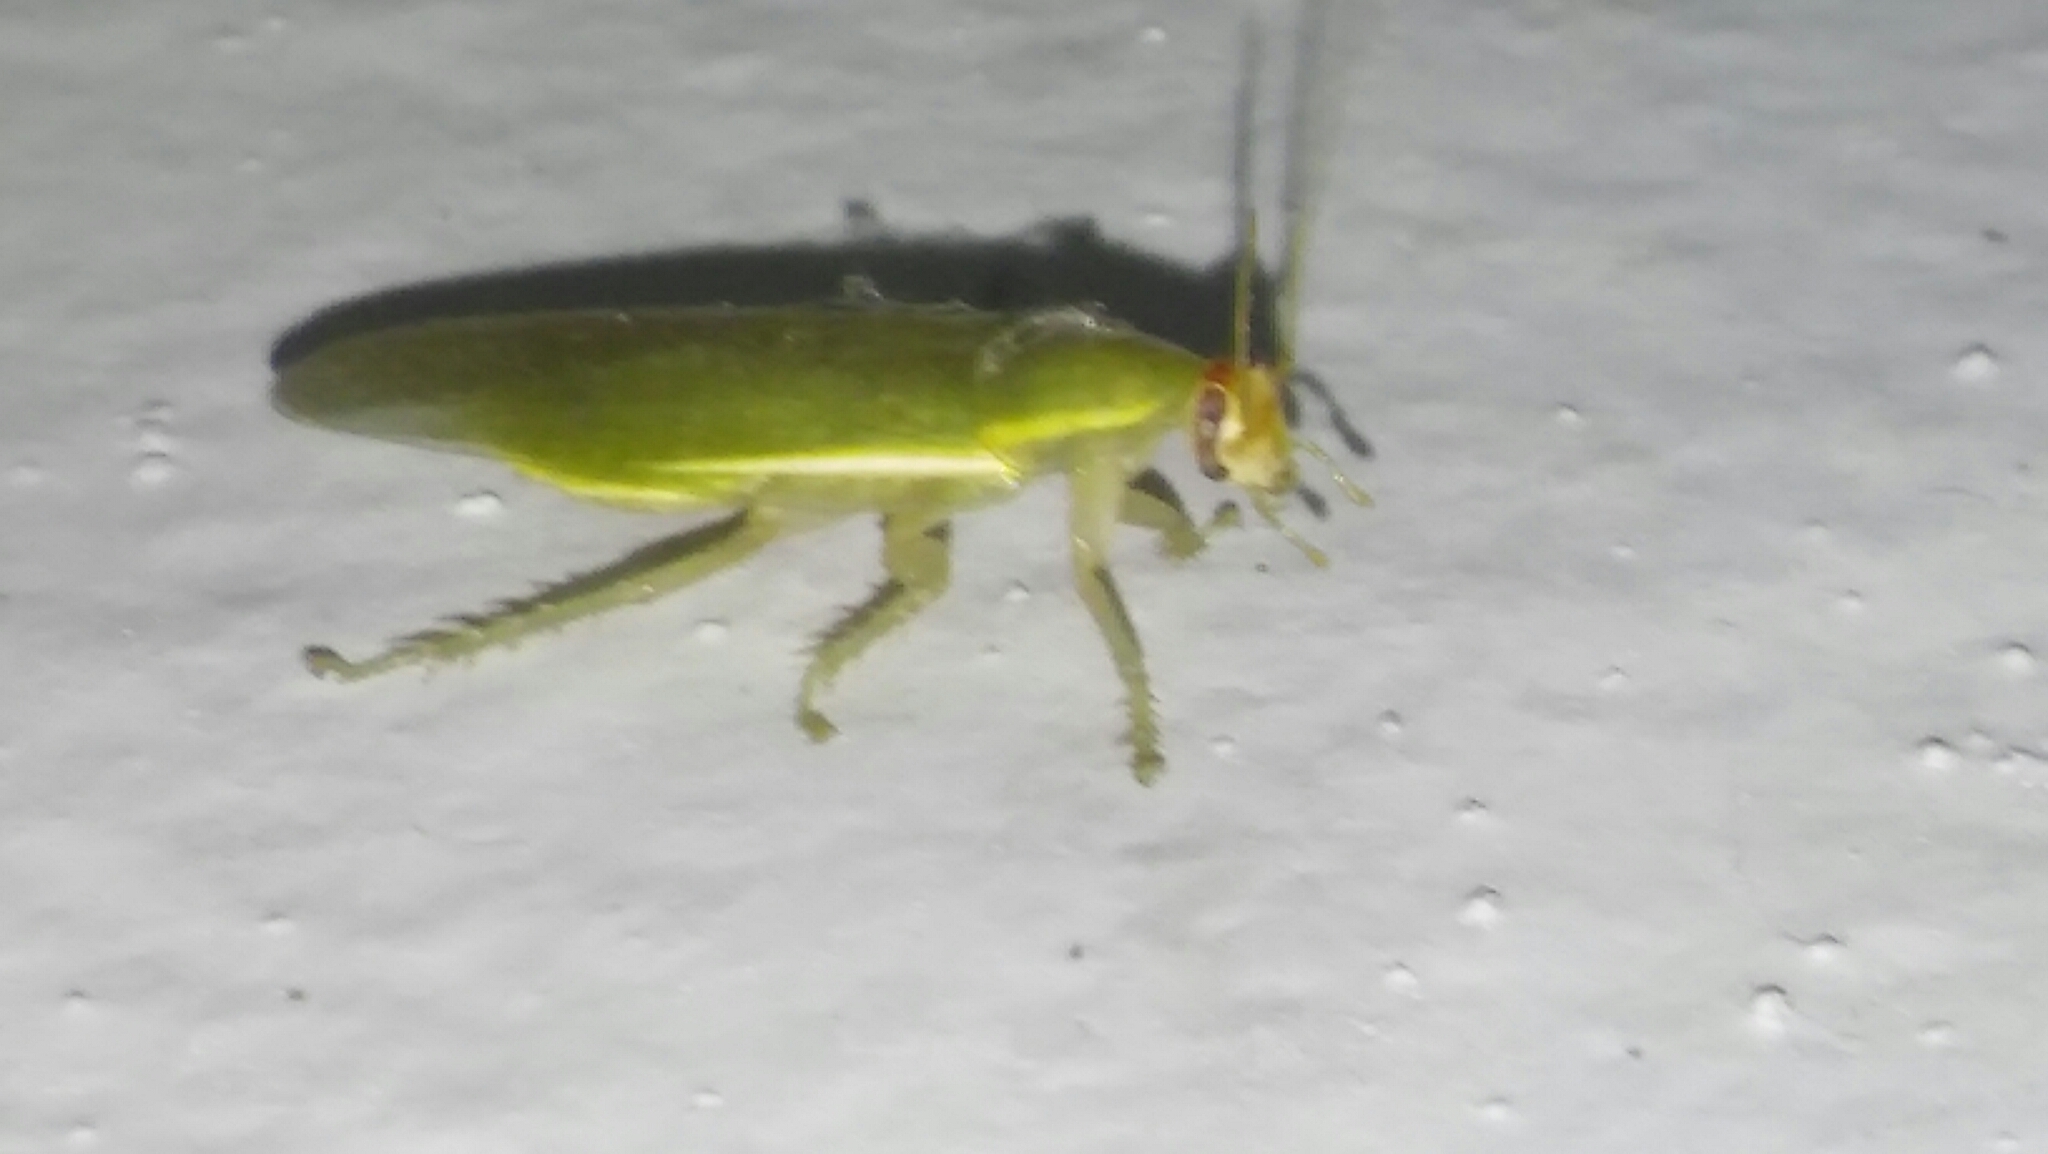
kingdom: Animalia
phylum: Arthropoda
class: Insecta
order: Blattodea
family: Blaberidae
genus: Panchlora
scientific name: Panchlora thalassina
